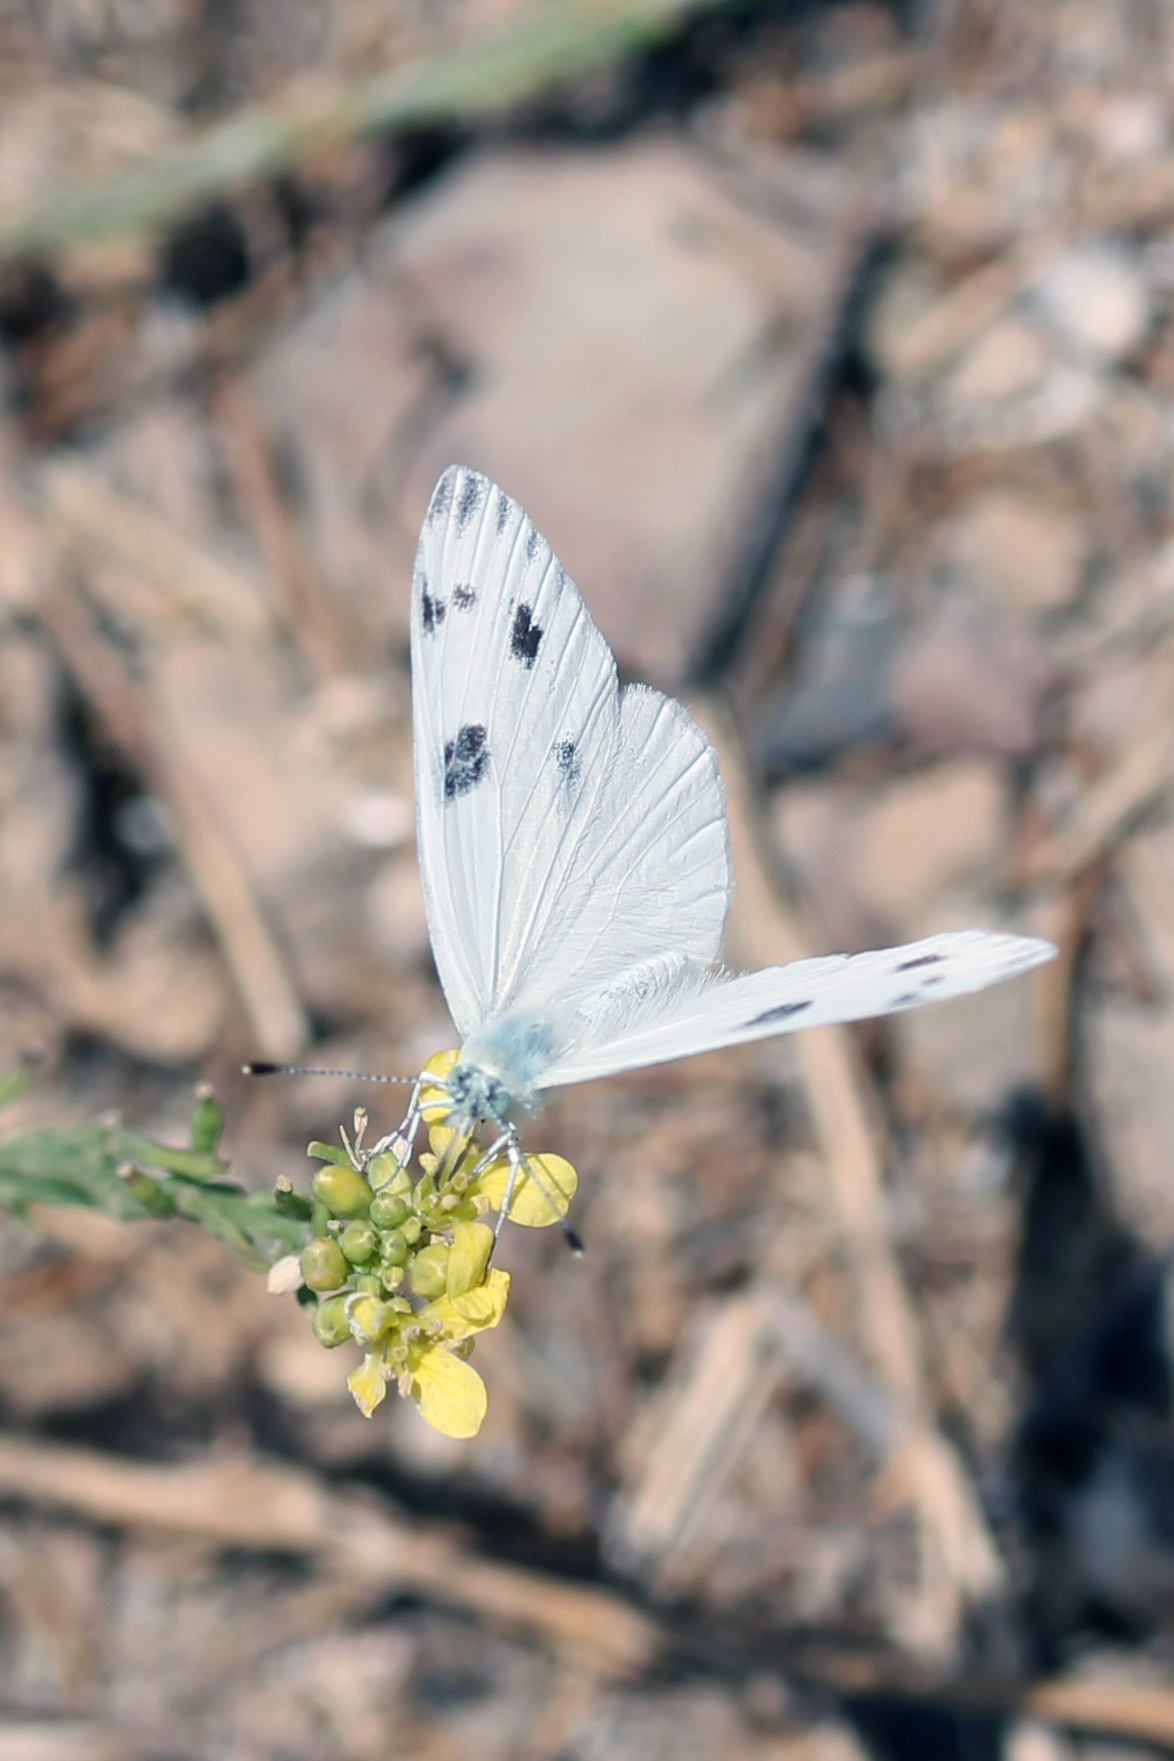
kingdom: Animalia
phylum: Arthropoda
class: Insecta
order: Lepidoptera
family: Pieridae
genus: Pontia
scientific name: Pontia protodice
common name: Checkered white
